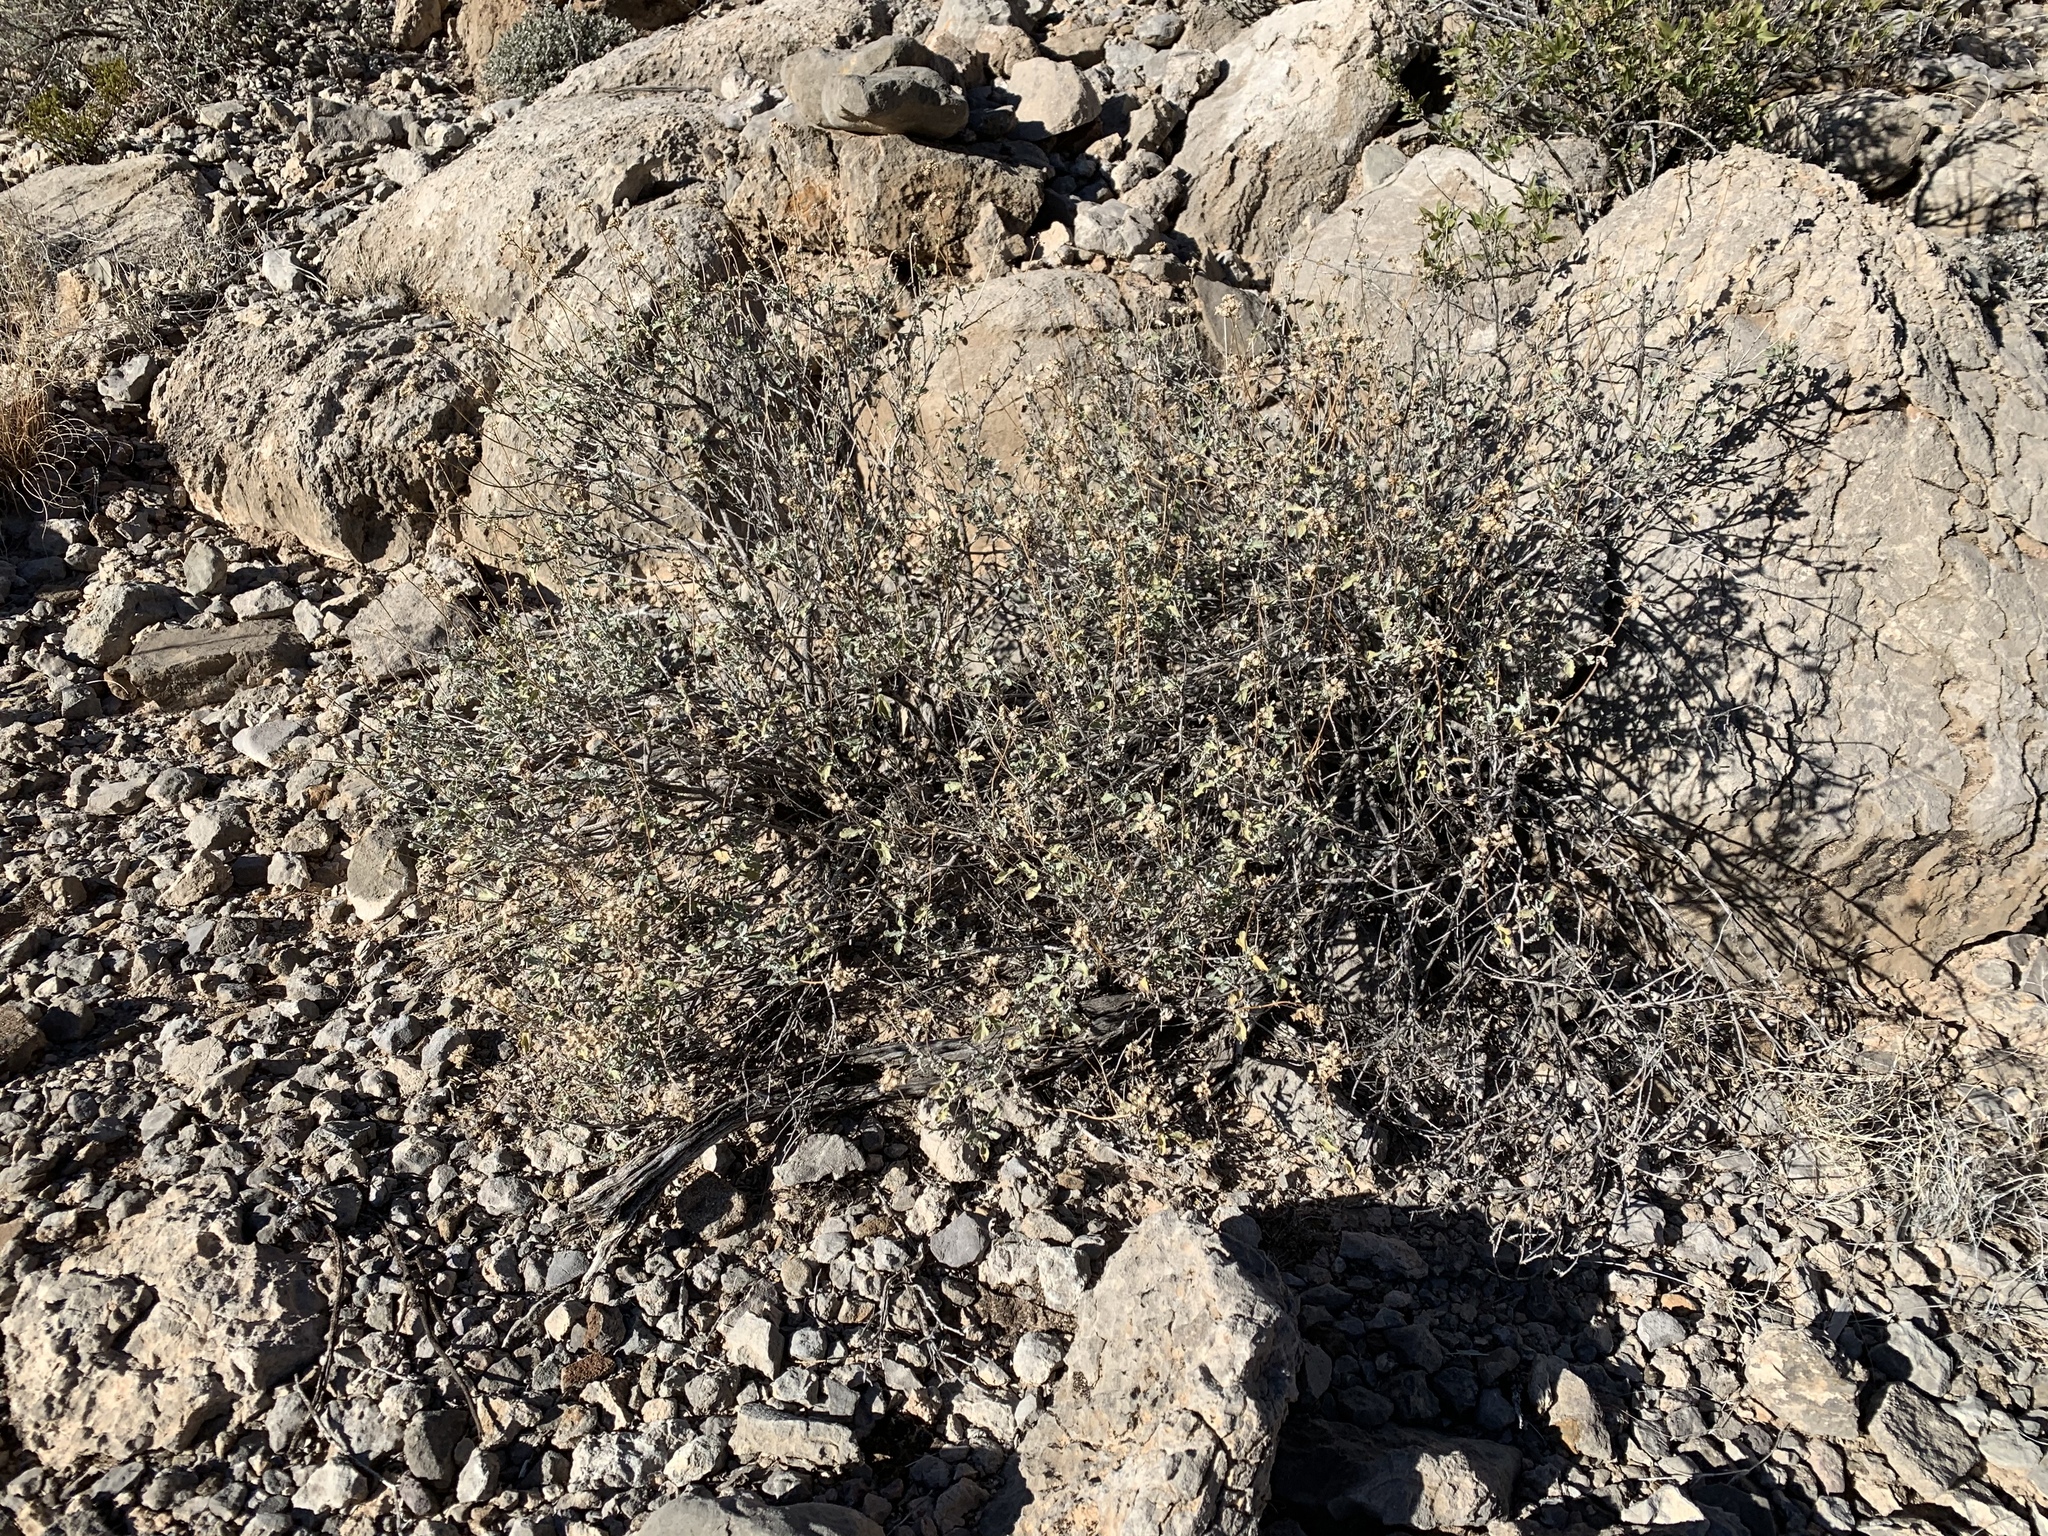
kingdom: Plantae
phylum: Tracheophyta
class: Magnoliopsida
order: Asterales
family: Asteraceae
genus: Parthenium
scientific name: Parthenium incanum
